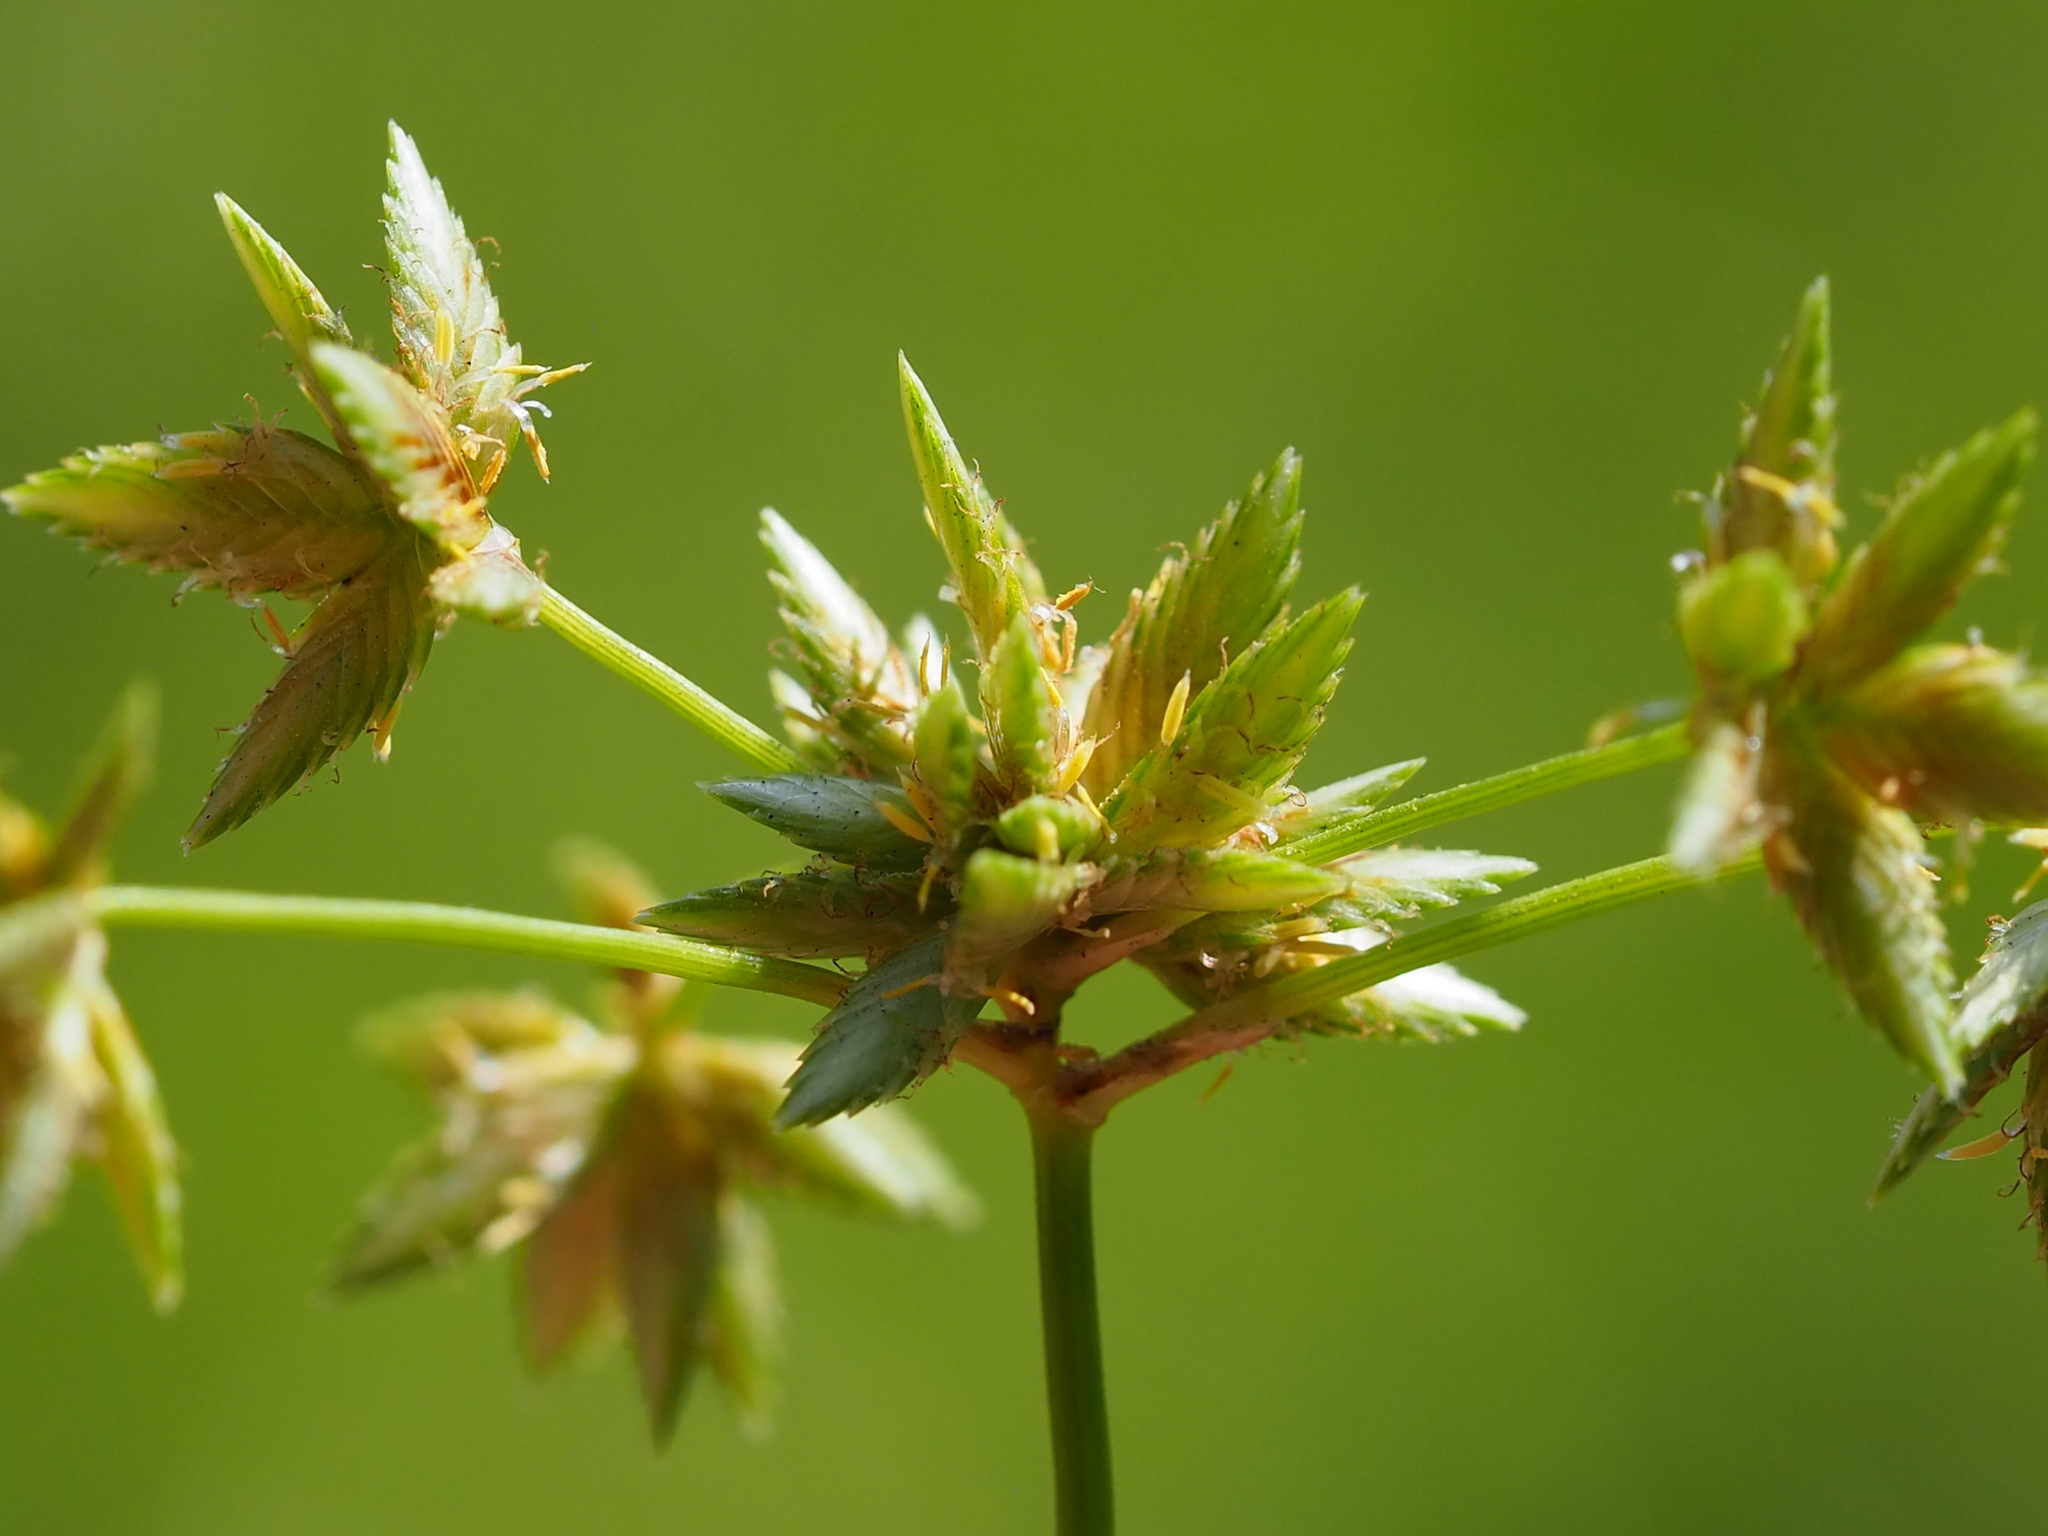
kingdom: Plantae
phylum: Tracheophyta
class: Liliopsida
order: Poales
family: Cyperaceae
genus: Cyperus
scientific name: Cyperus alternifolius
